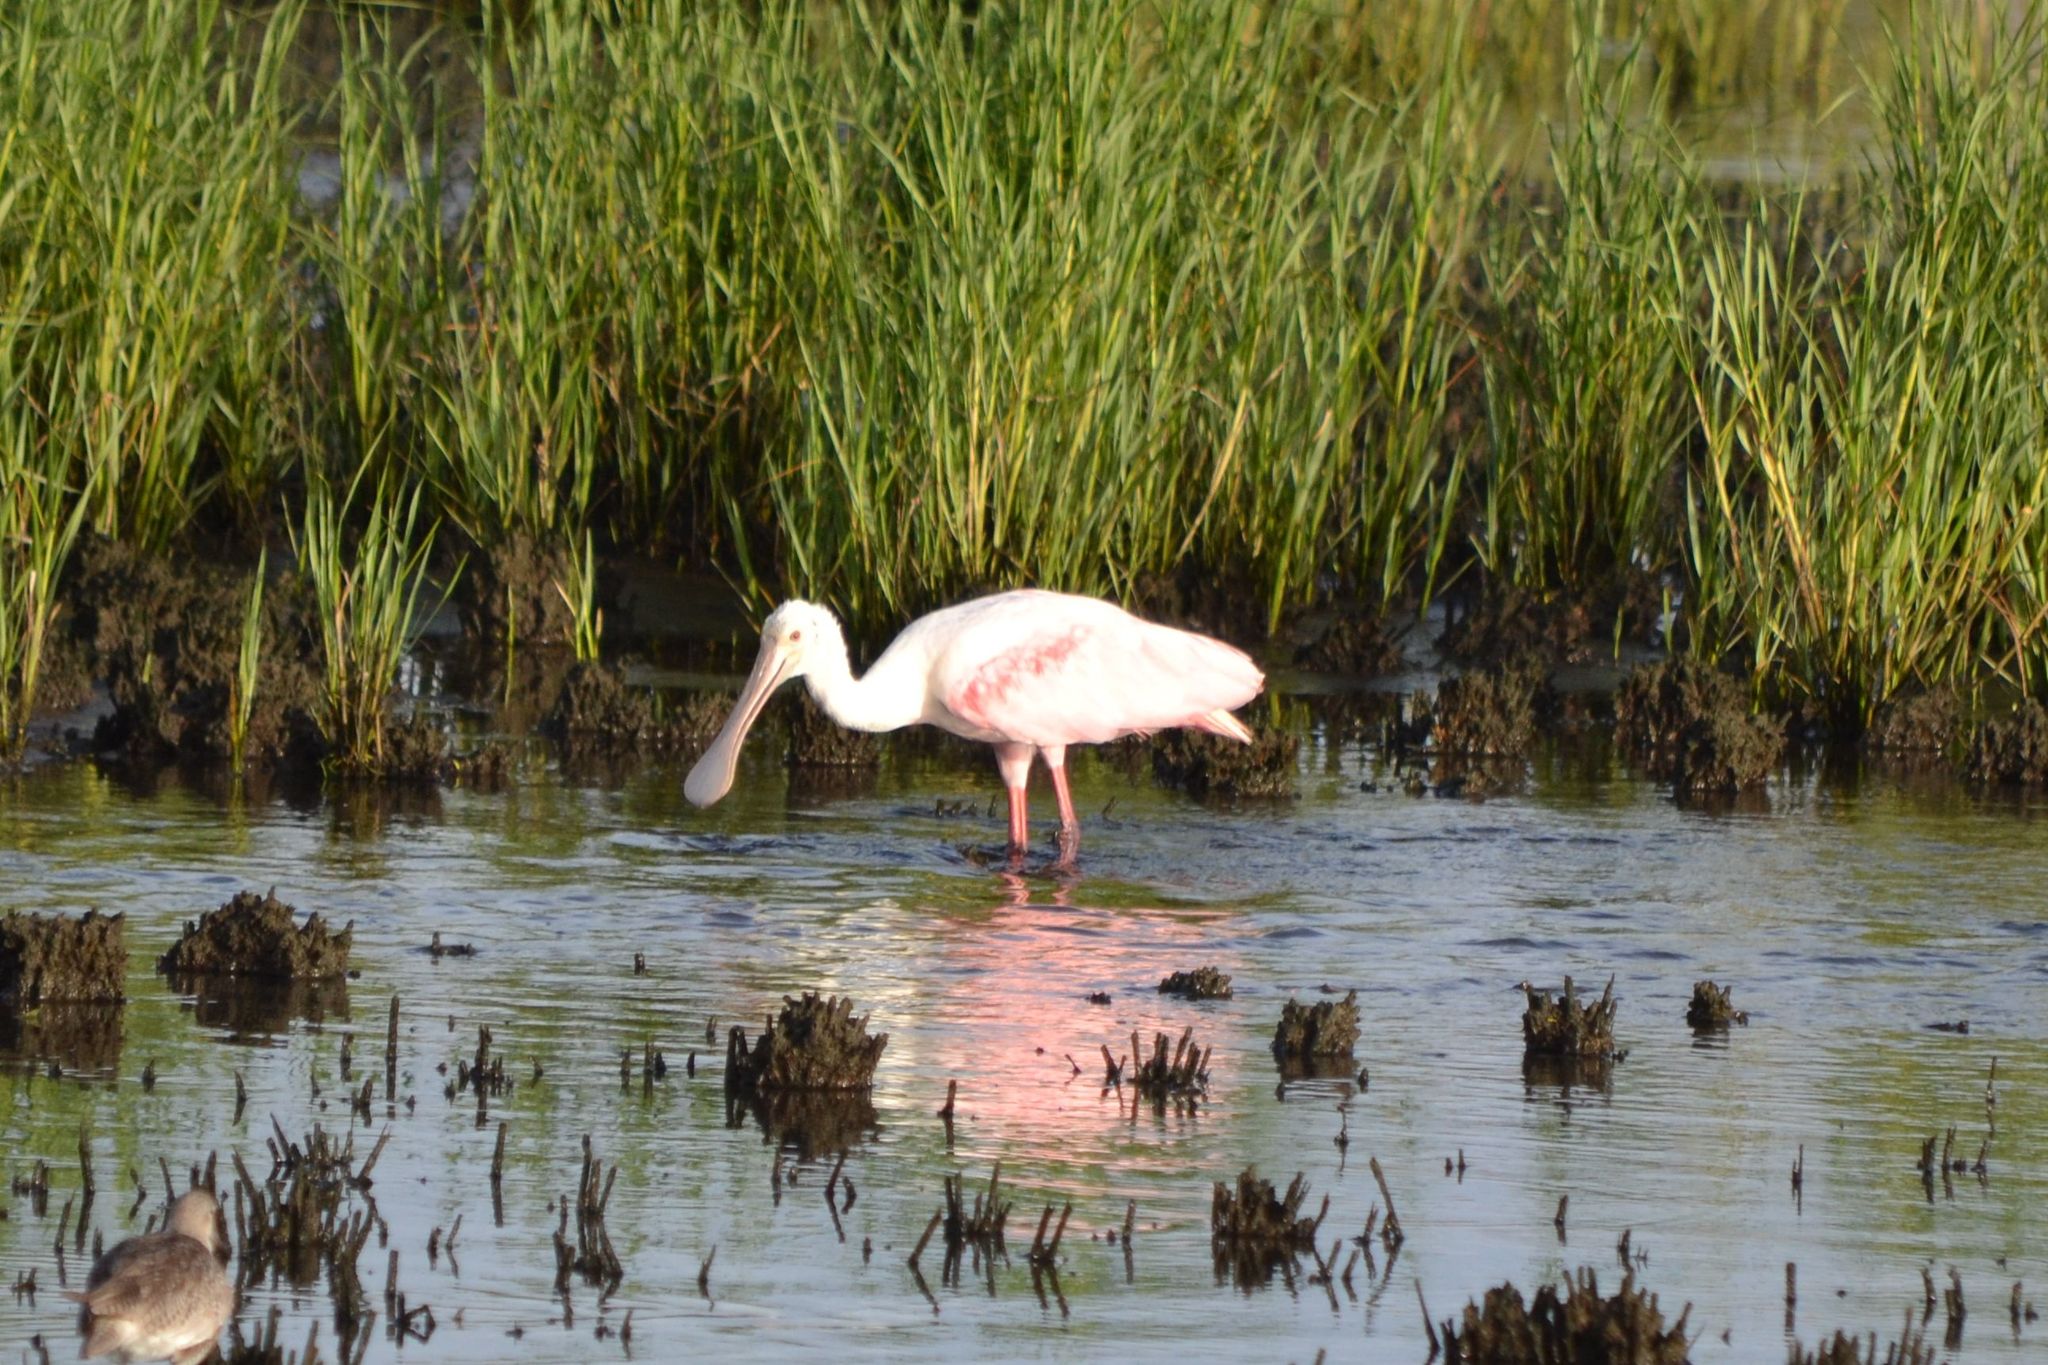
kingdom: Animalia
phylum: Chordata
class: Aves
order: Pelecaniformes
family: Threskiornithidae
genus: Platalea
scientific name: Platalea ajaja
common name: Roseate spoonbill
